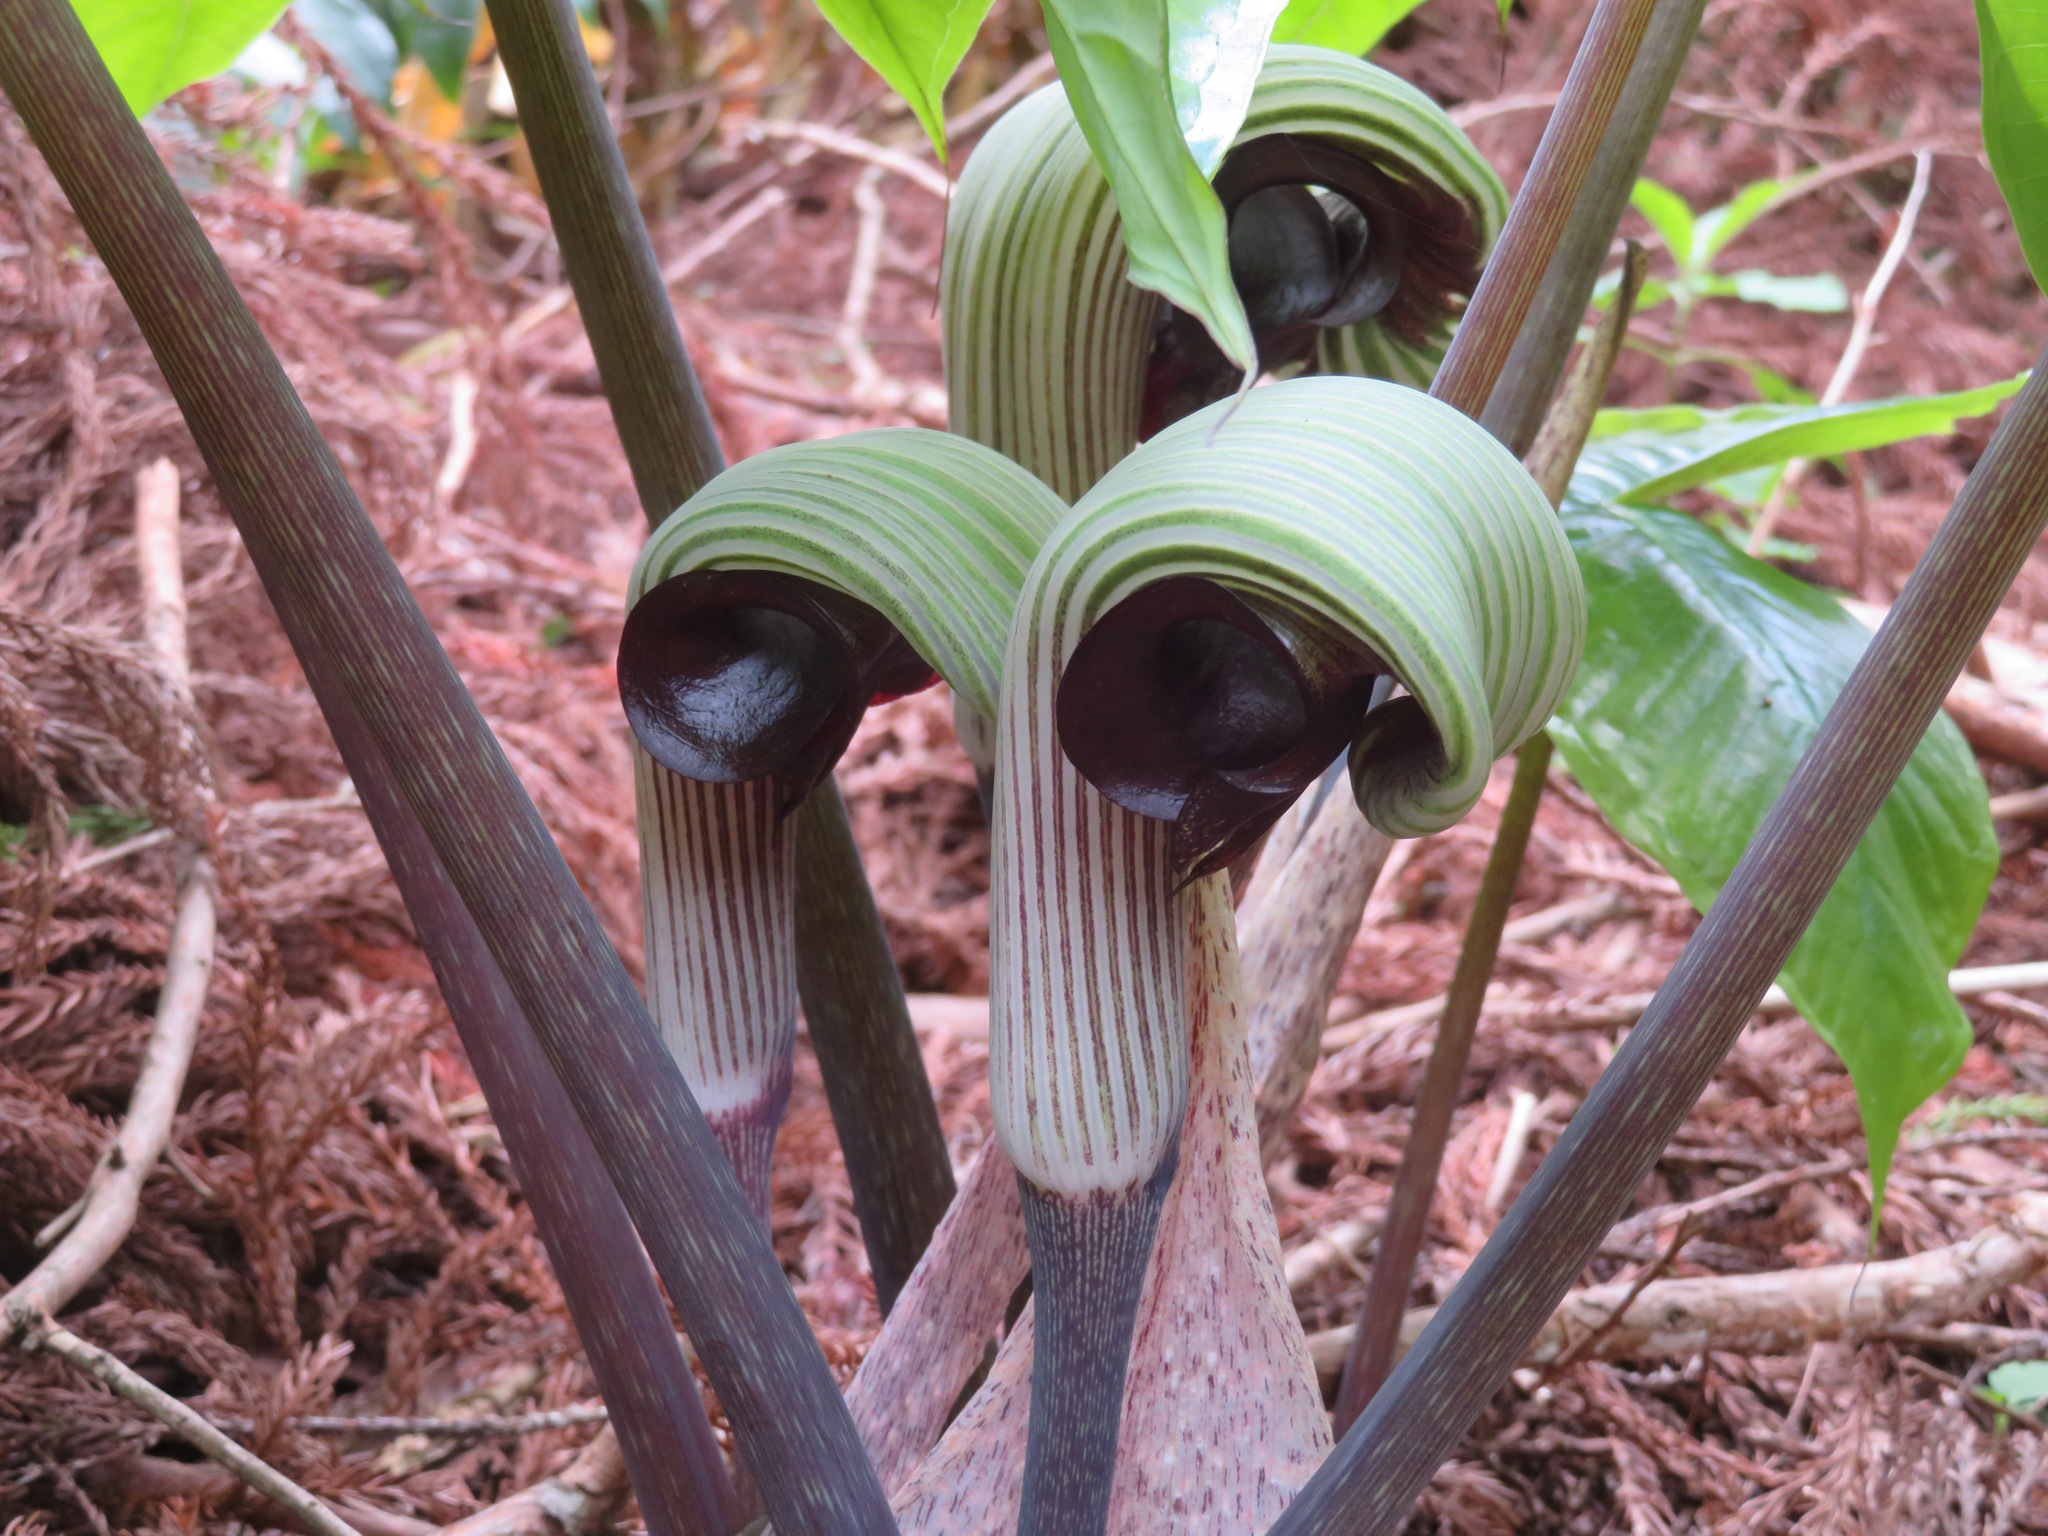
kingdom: Plantae
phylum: Tracheophyta
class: Liliopsida
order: Alismatales
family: Araceae
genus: Arisaema
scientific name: Arisaema ringens
